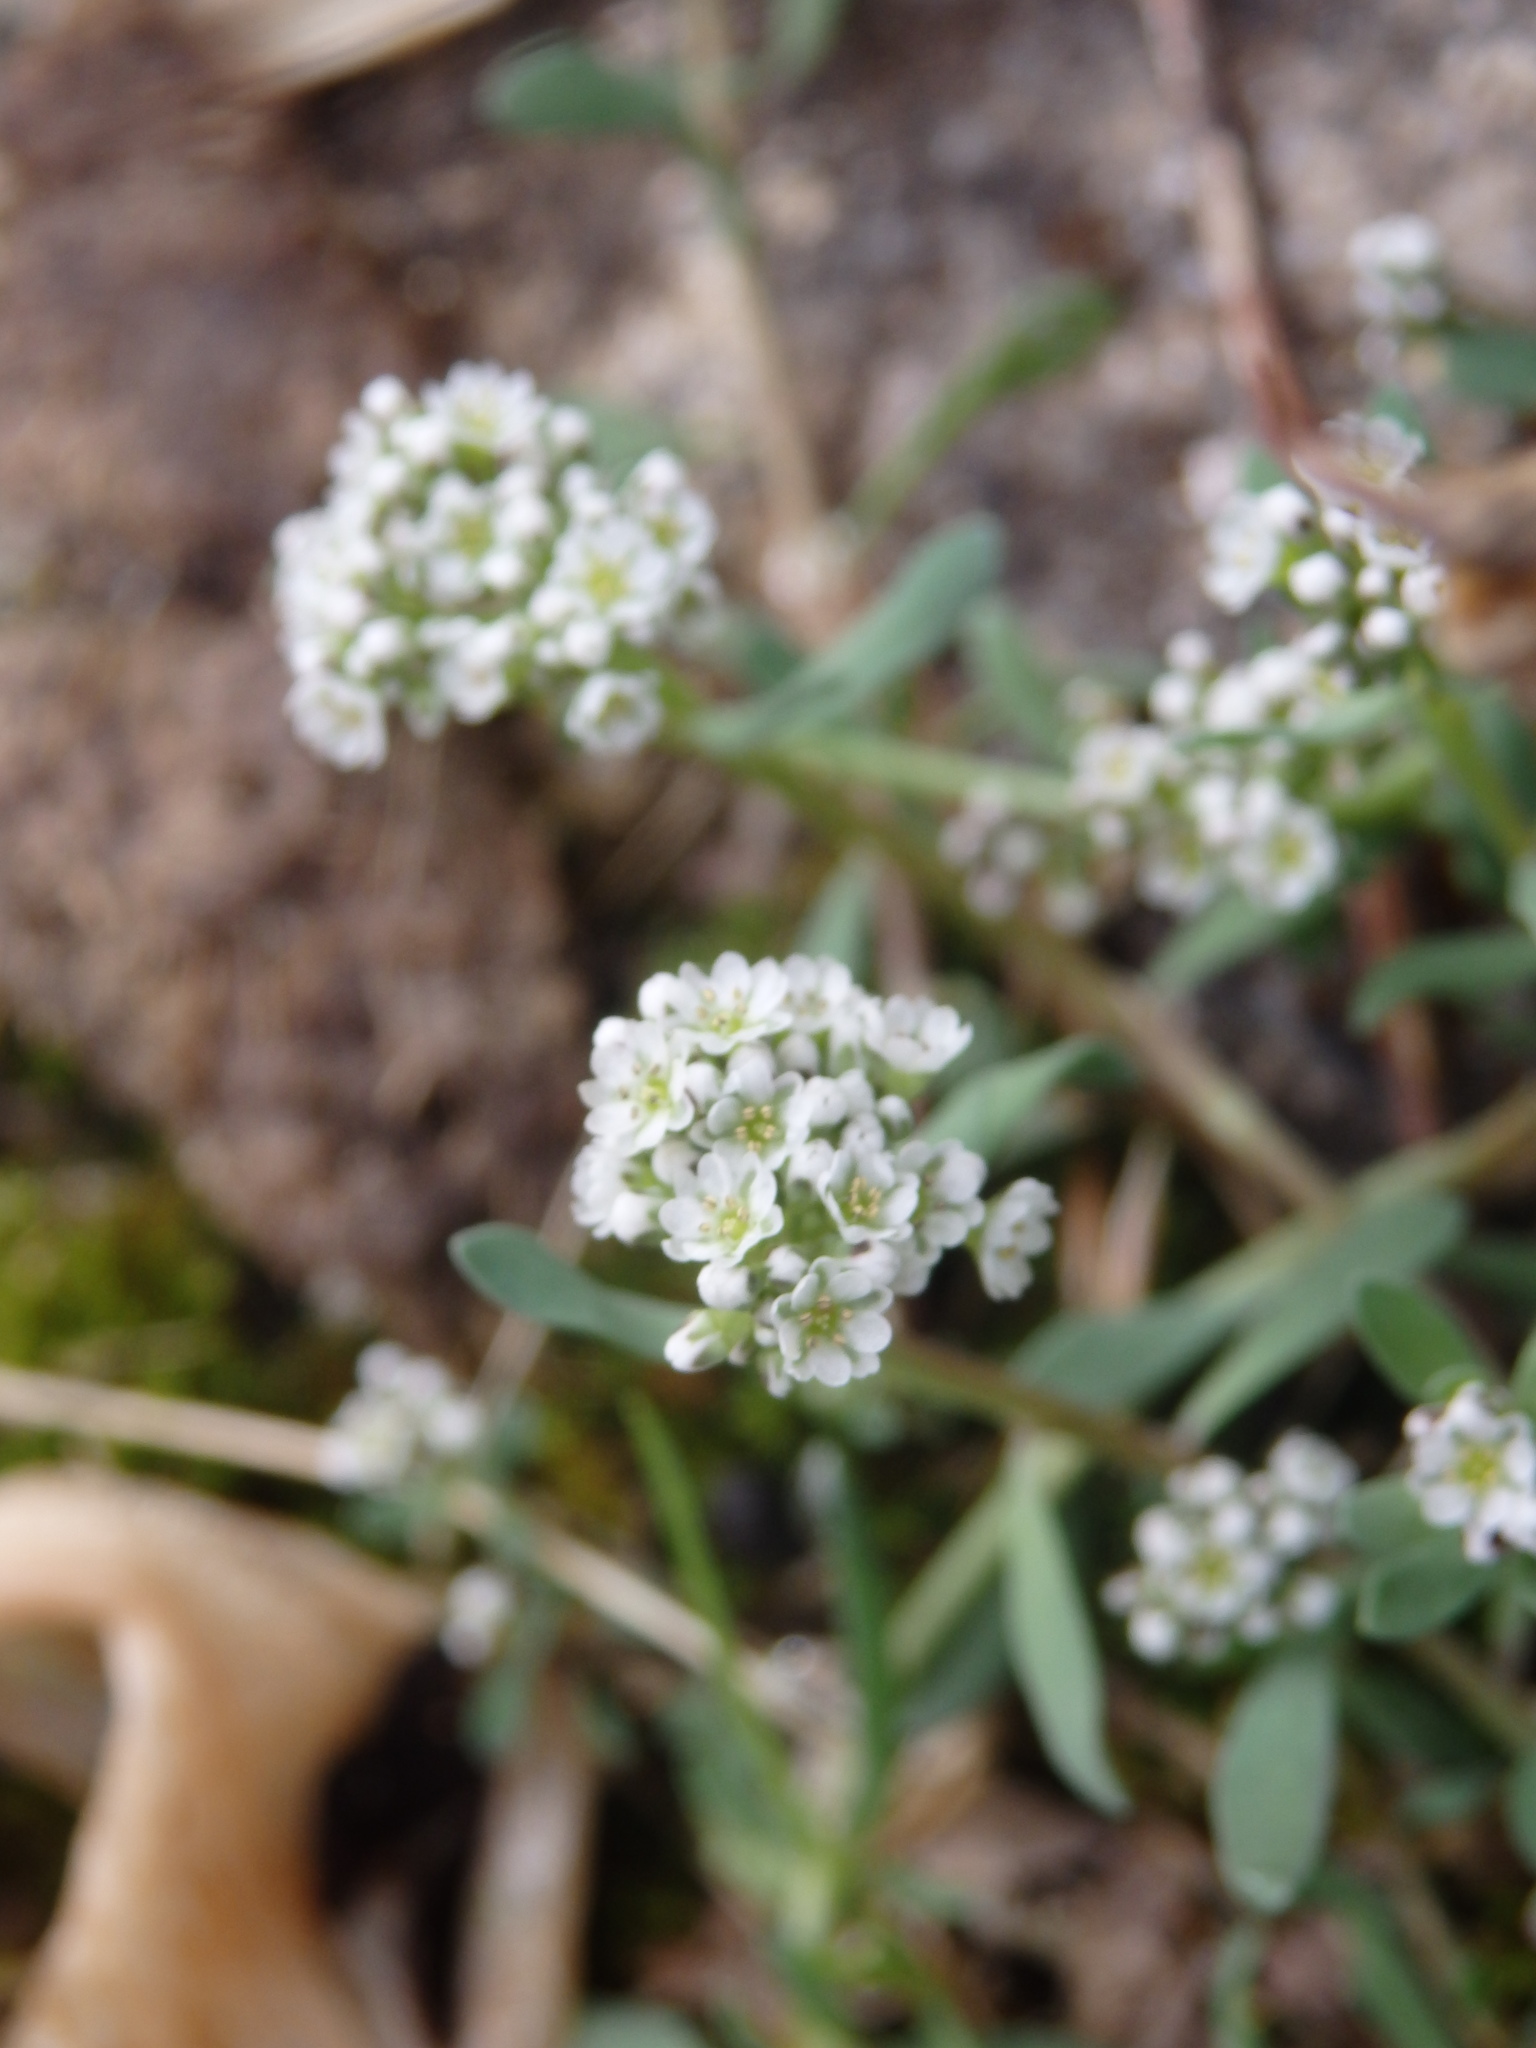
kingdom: Plantae
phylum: Tracheophyta
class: Magnoliopsida
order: Caryophyllales
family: Caryophyllaceae
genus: Corrigiola
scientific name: Corrigiola litoralis
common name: Strapwort
